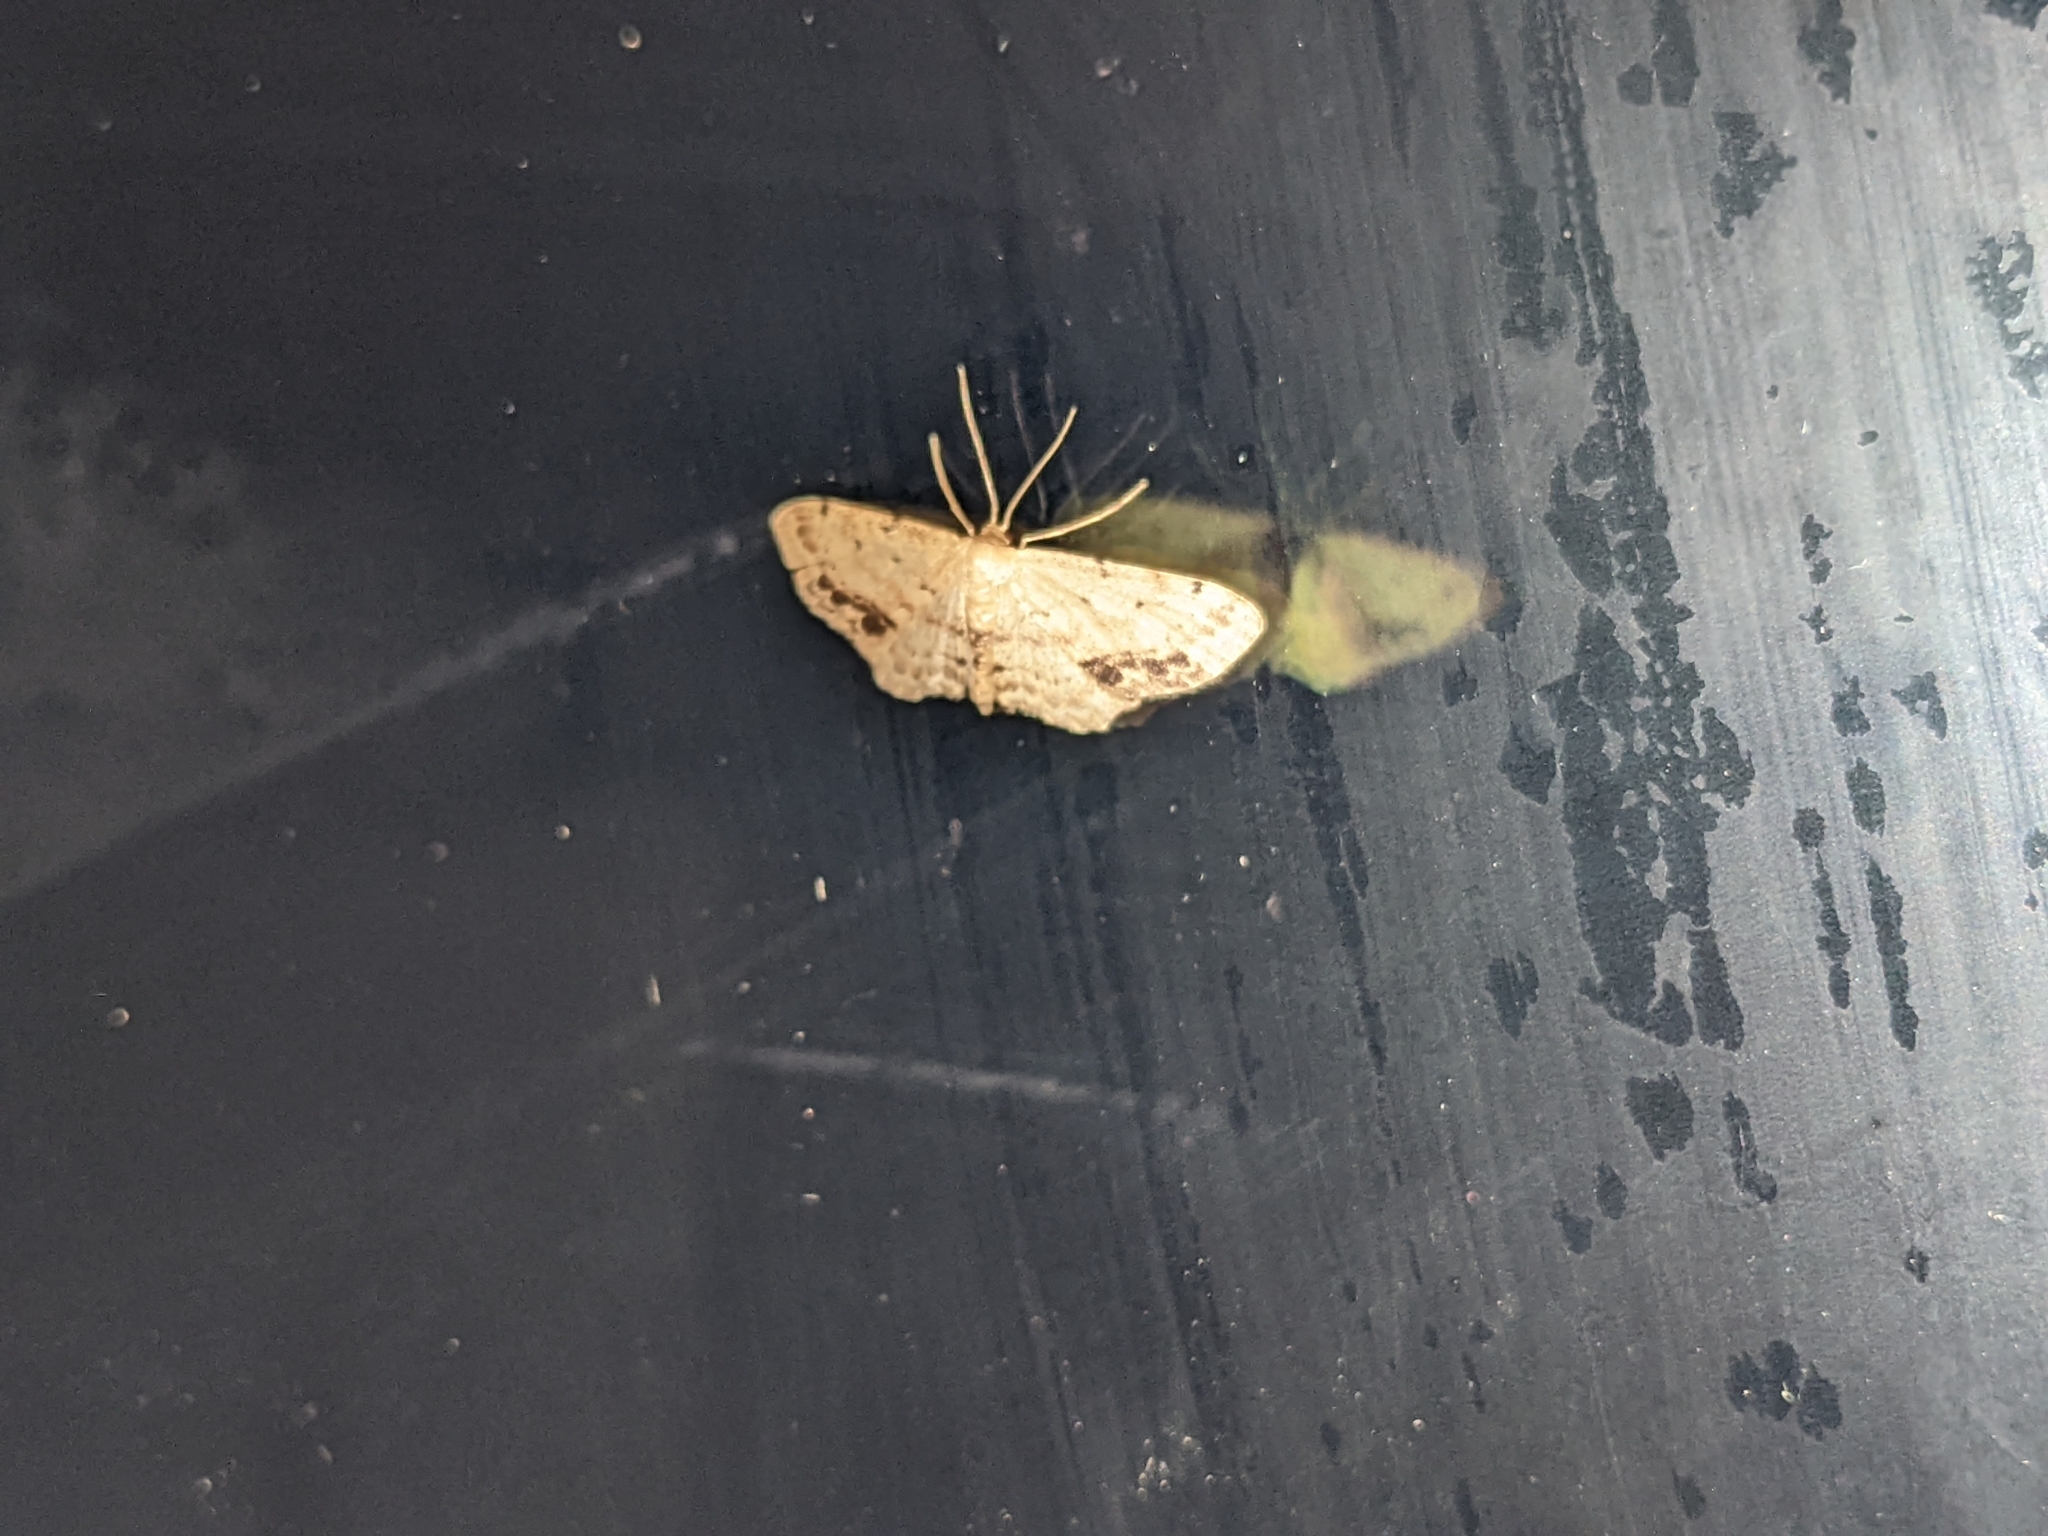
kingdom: Animalia
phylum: Arthropoda
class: Insecta
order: Lepidoptera
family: Geometridae
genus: Idaea
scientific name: Idaea dimidiata
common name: Single-dotted wave
